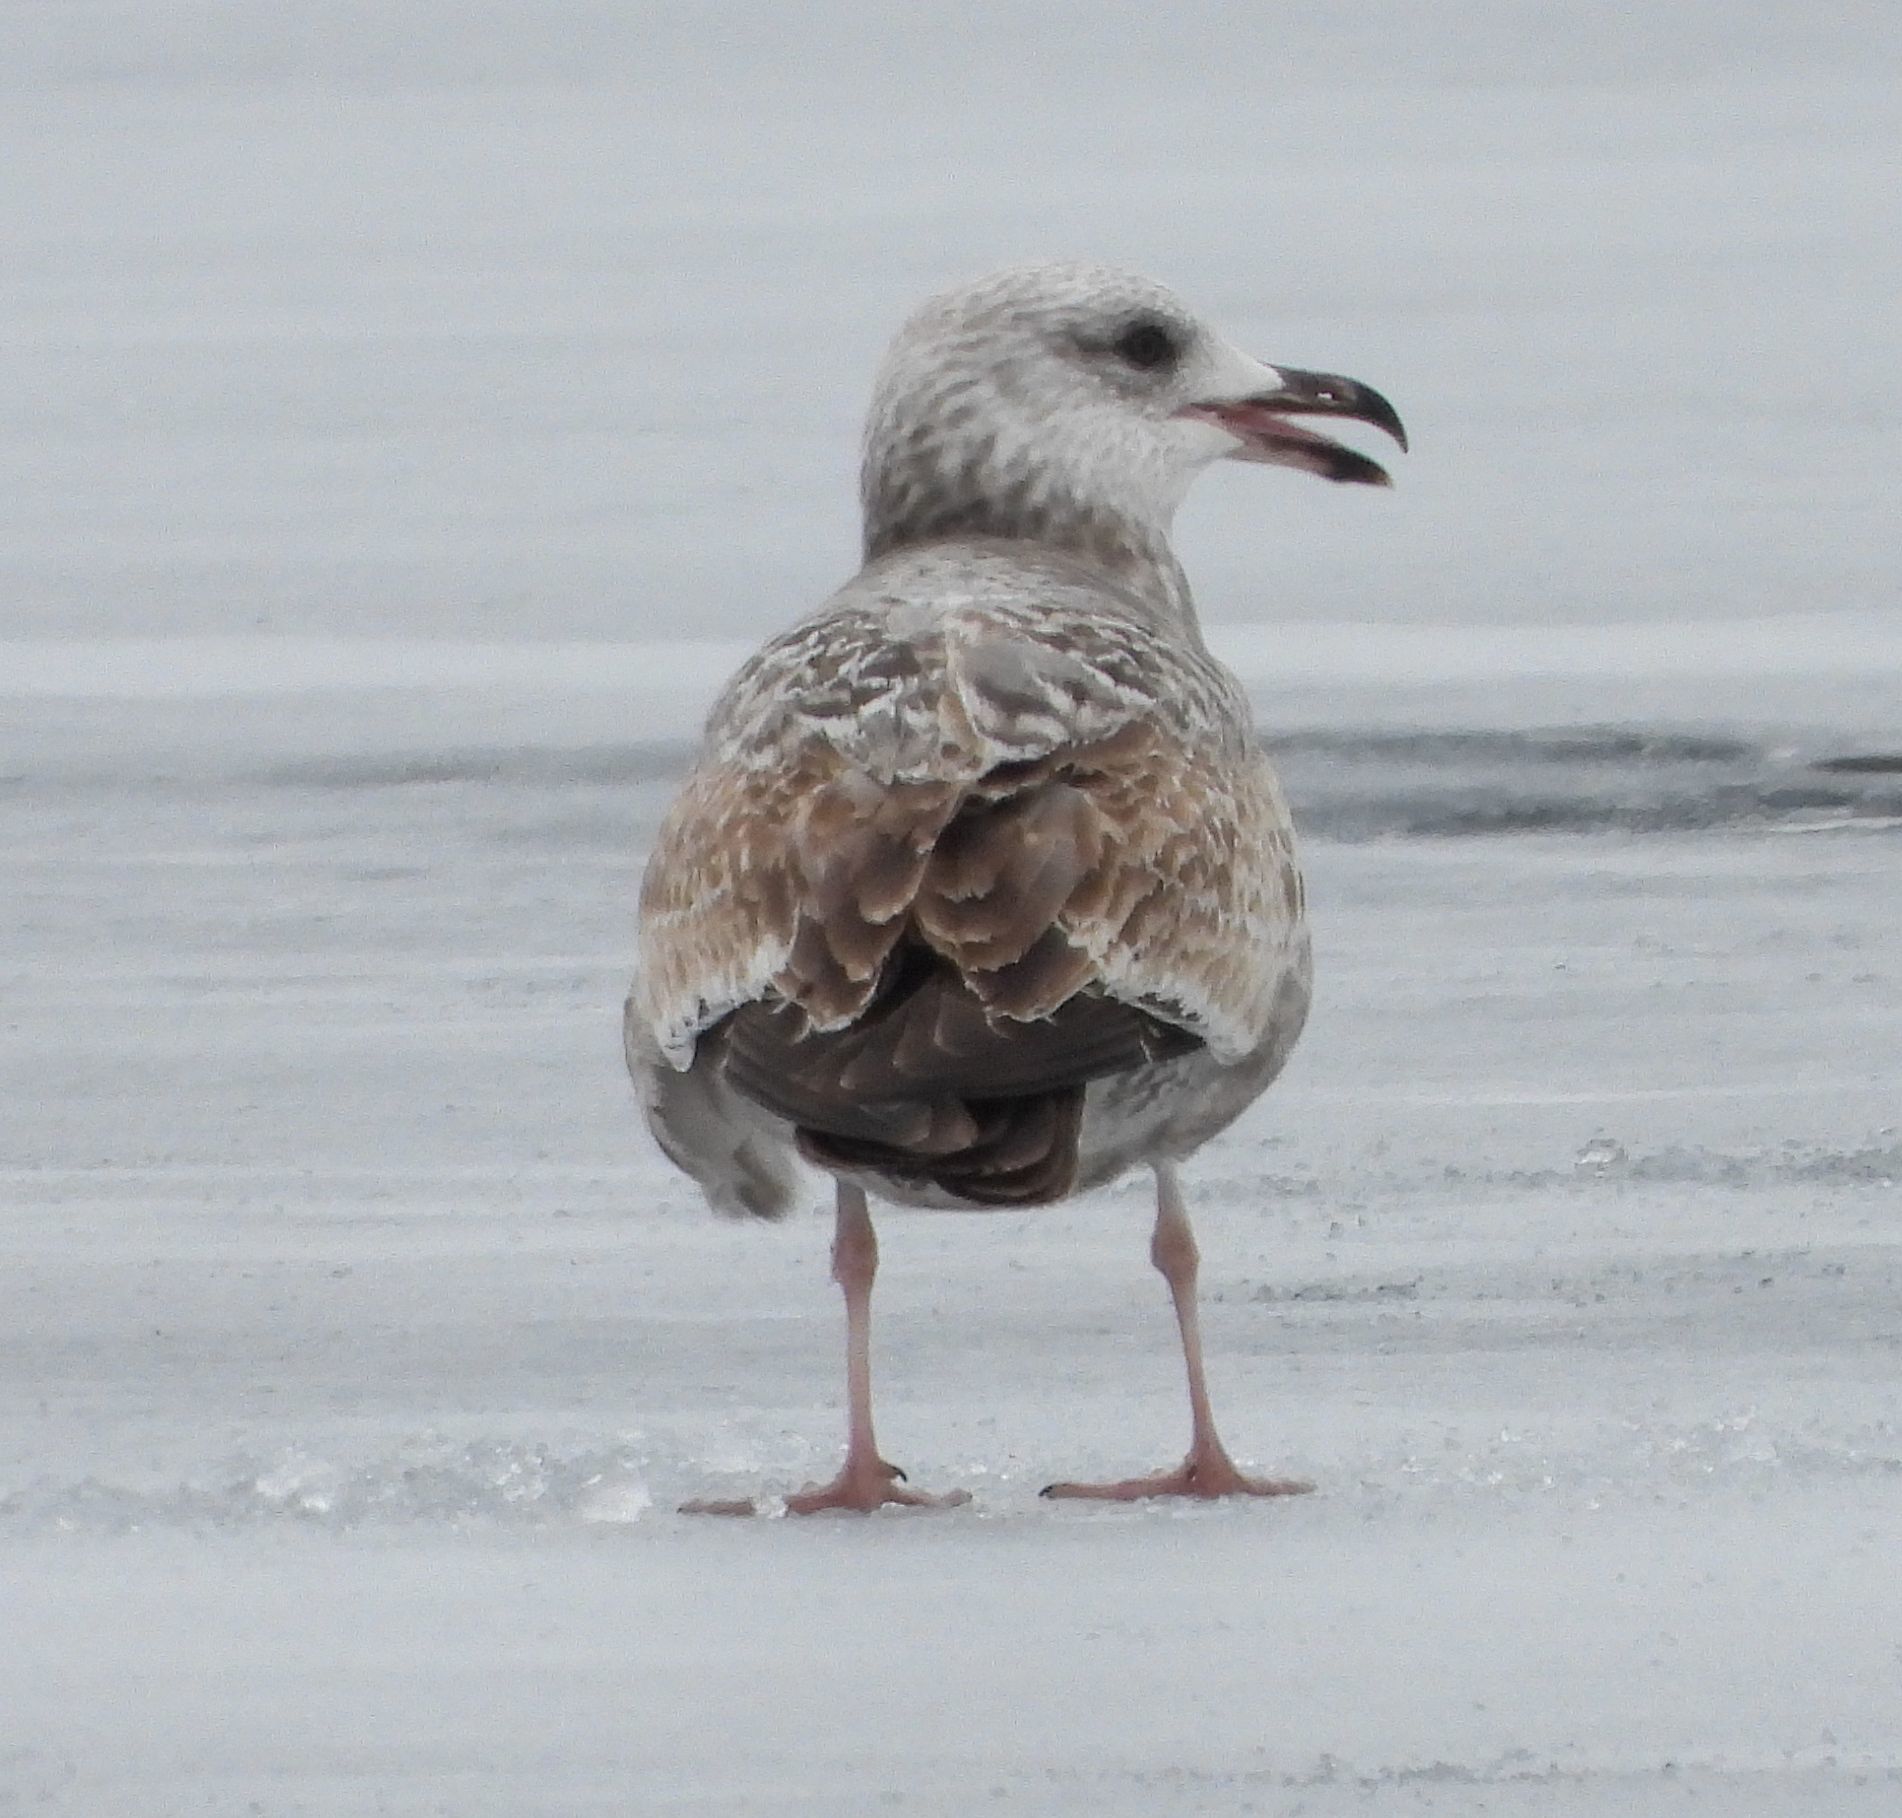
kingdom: Animalia
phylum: Chordata
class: Aves
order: Charadriiformes
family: Laridae
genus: Larus
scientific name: Larus argentatus
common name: Herring gull
